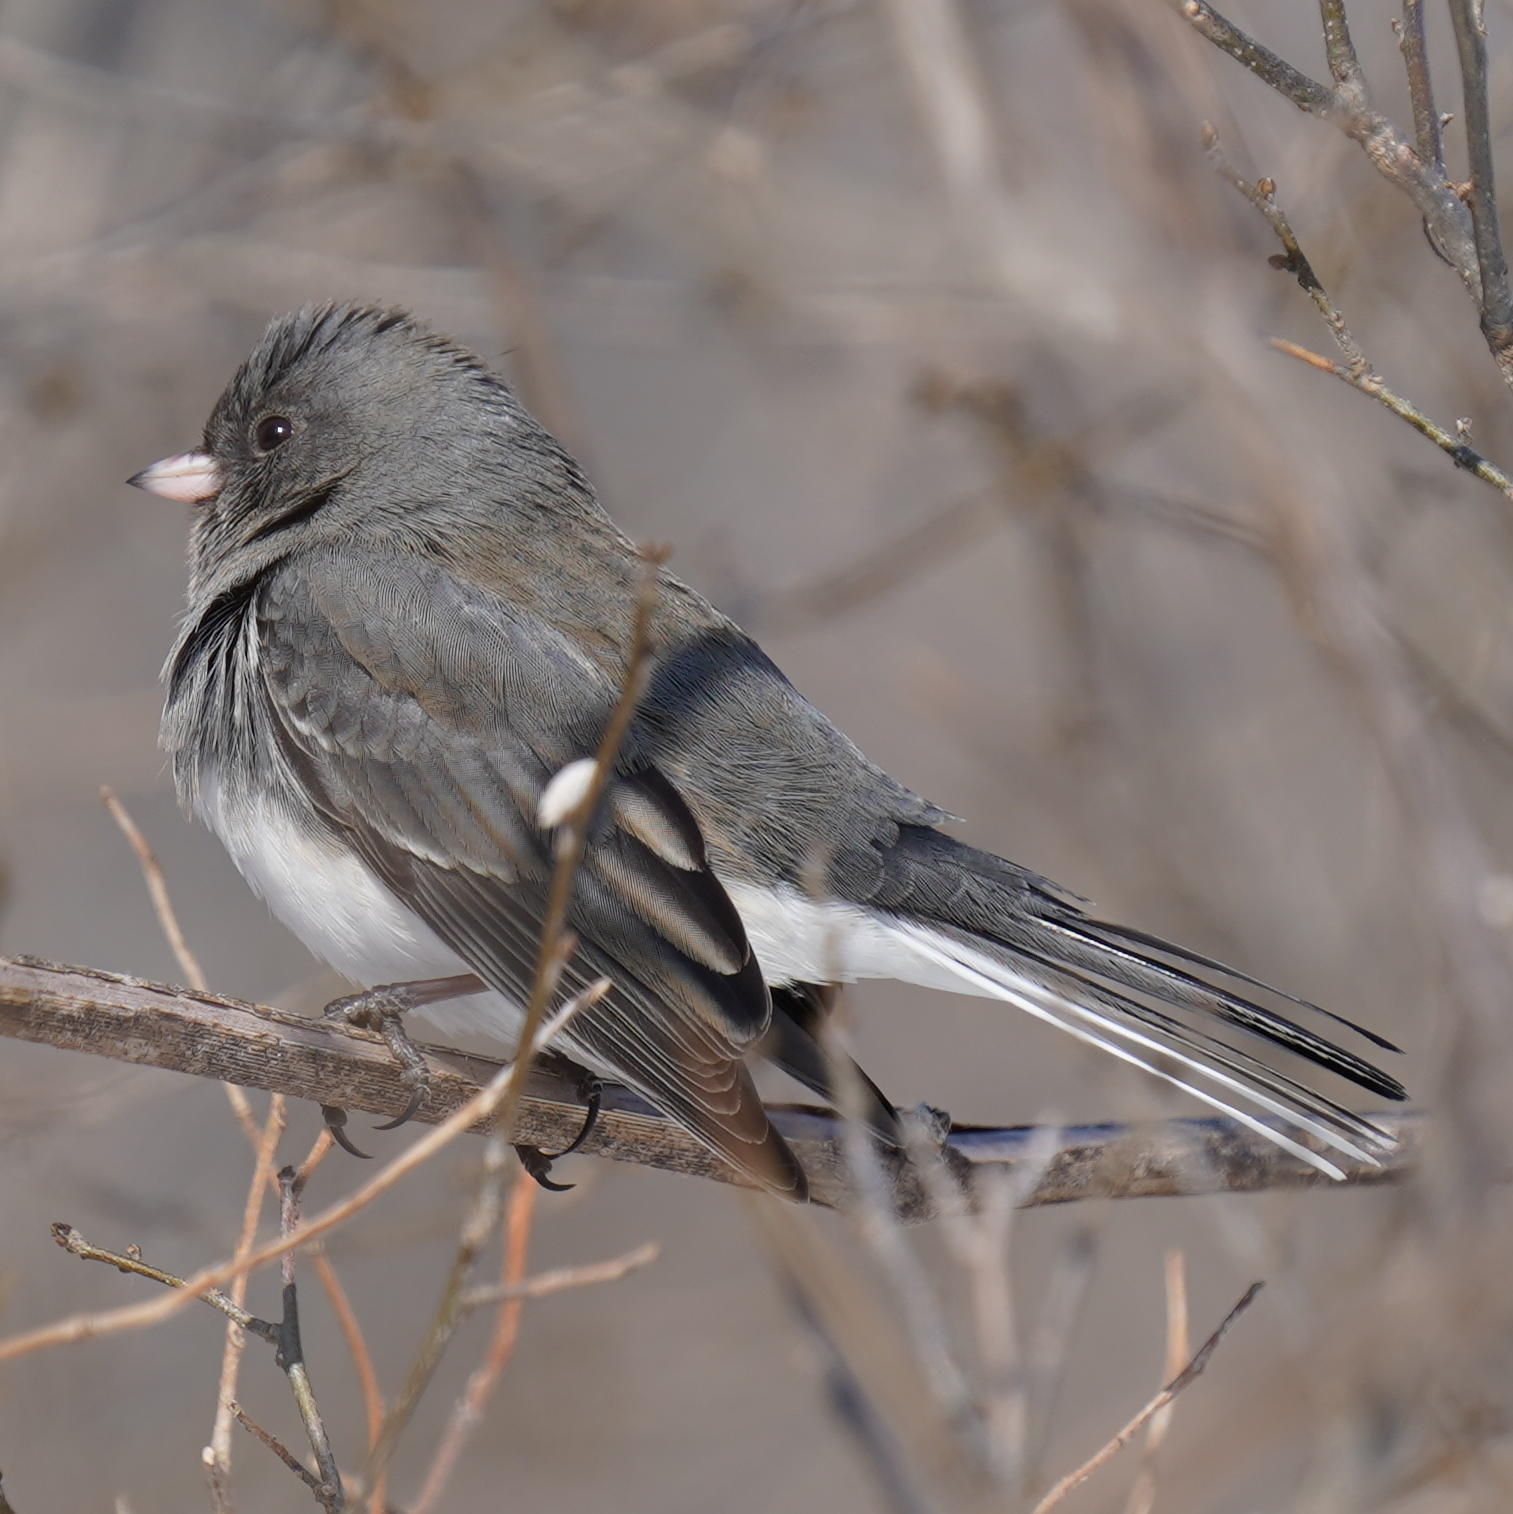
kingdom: Animalia
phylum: Chordata
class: Aves
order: Passeriformes
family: Passerellidae
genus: Junco
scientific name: Junco hyemalis
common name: Dark-eyed junco
